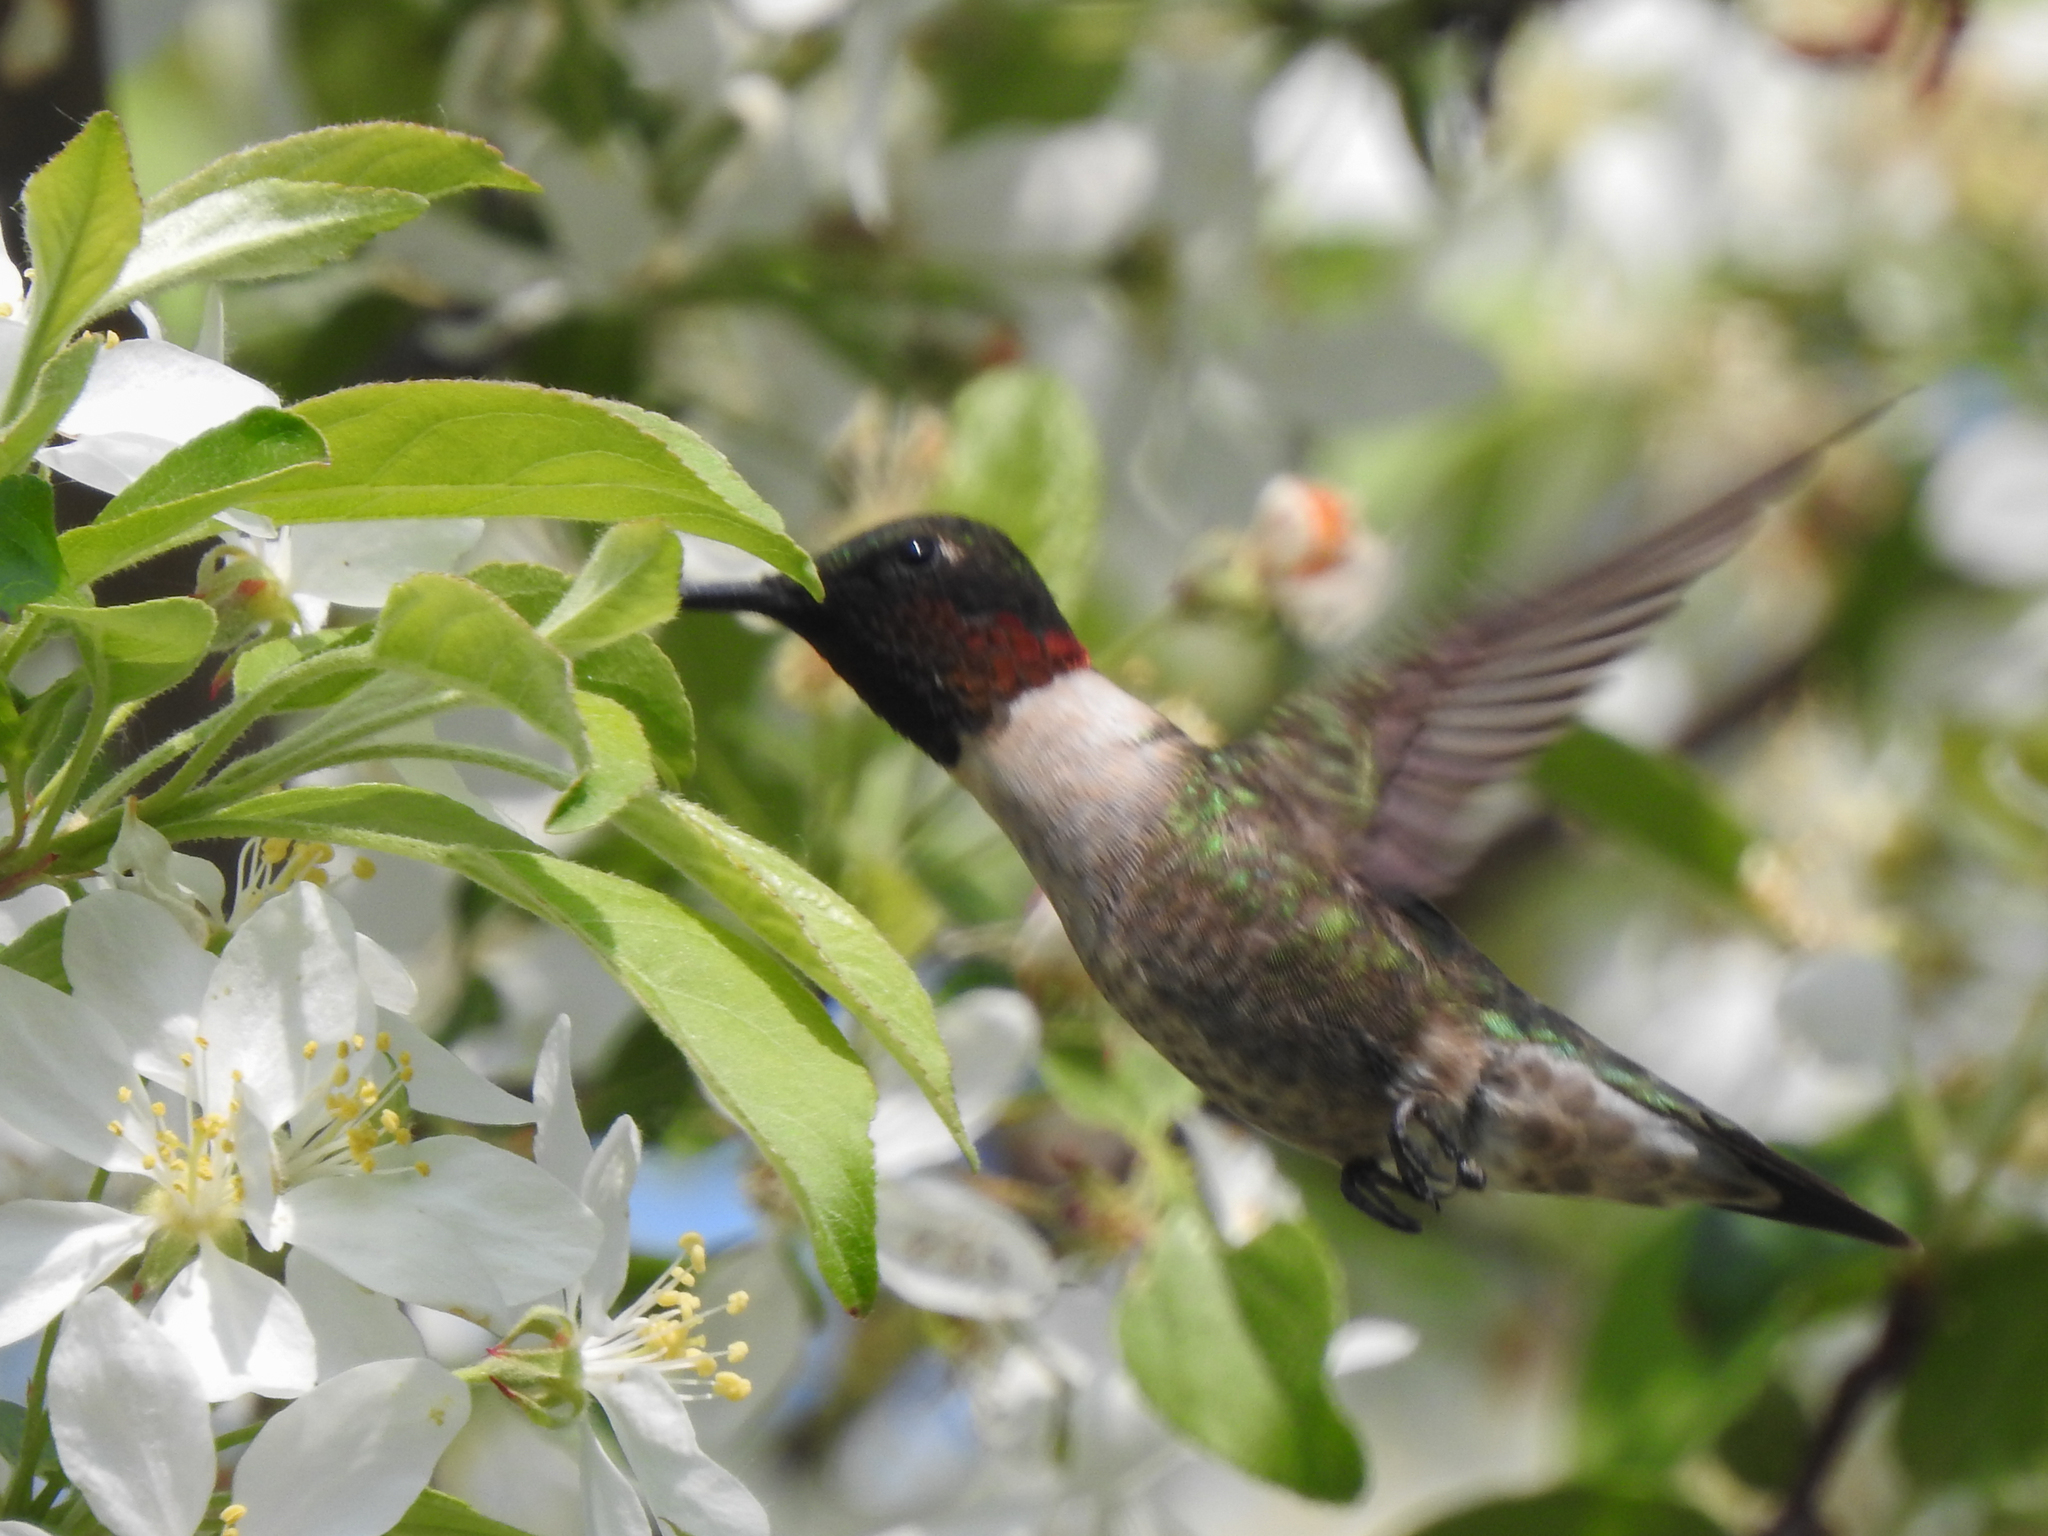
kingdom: Animalia
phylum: Chordata
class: Aves
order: Apodiformes
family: Trochilidae
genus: Archilochus
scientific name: Archilochus colubris
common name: Ruby-throated hummingbird
